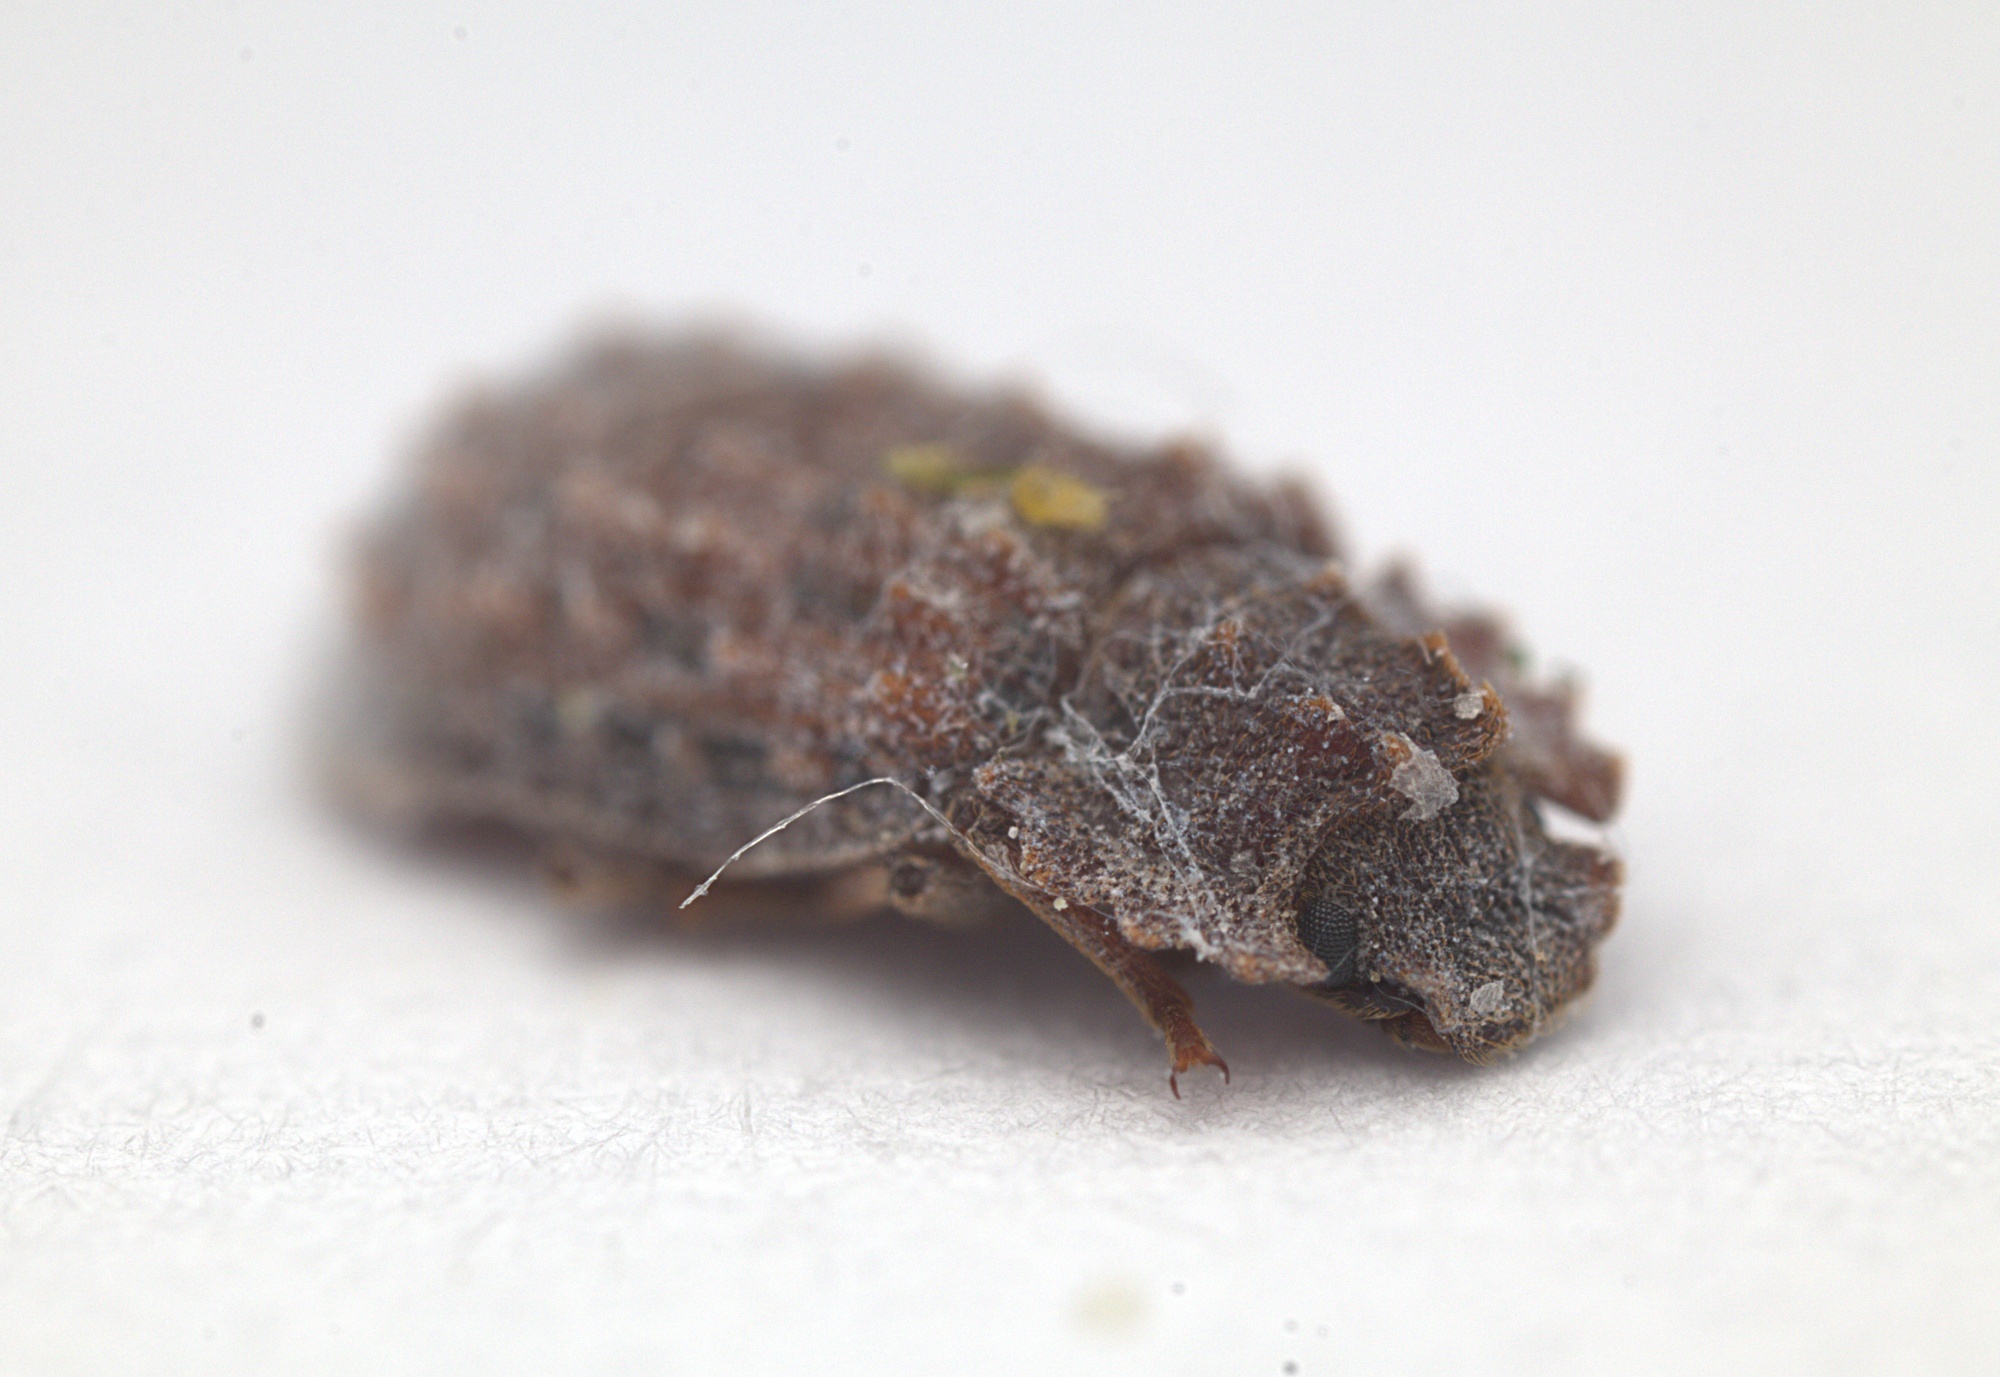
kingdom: Animalia
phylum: Arthropoda
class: Insecta
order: Coleoptera
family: Zopheridae
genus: Pristoderus
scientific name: Pristoderus
